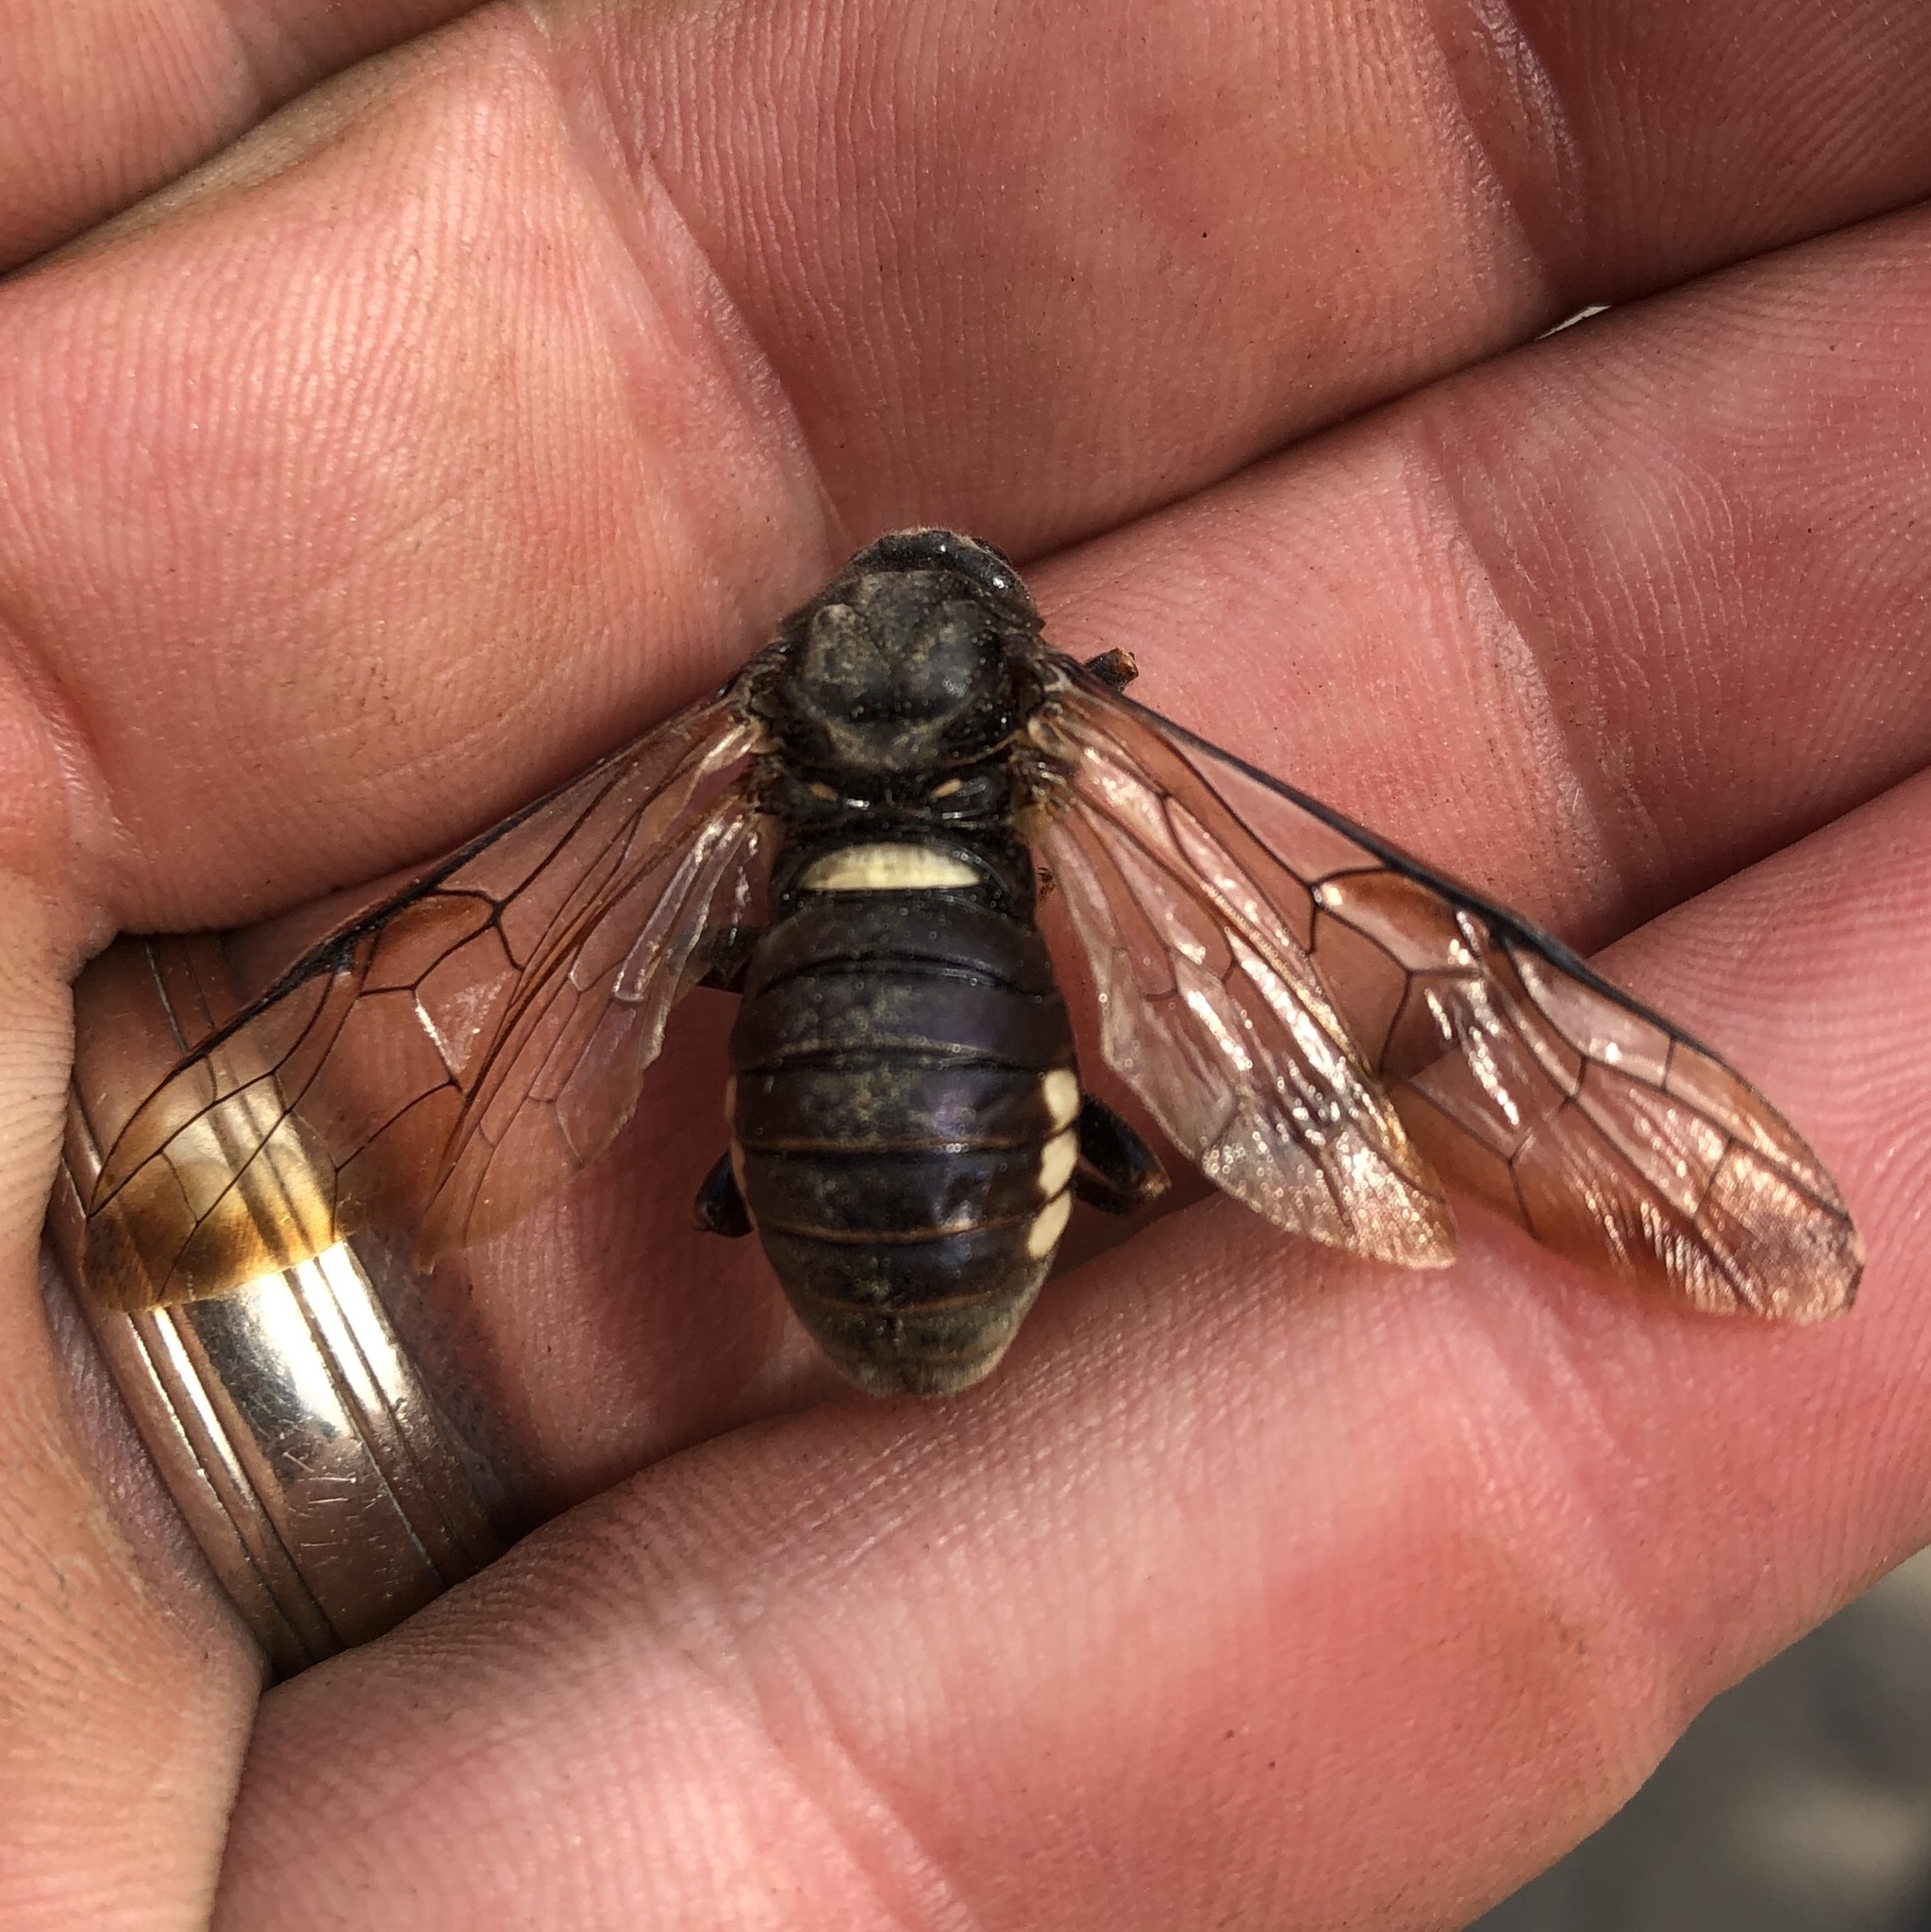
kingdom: Animalia
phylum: Arthropoda
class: Insecta
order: Hymenoptera
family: Cimbicidae
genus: Cimbex
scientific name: Cimbex americana
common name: Elm sawfly
